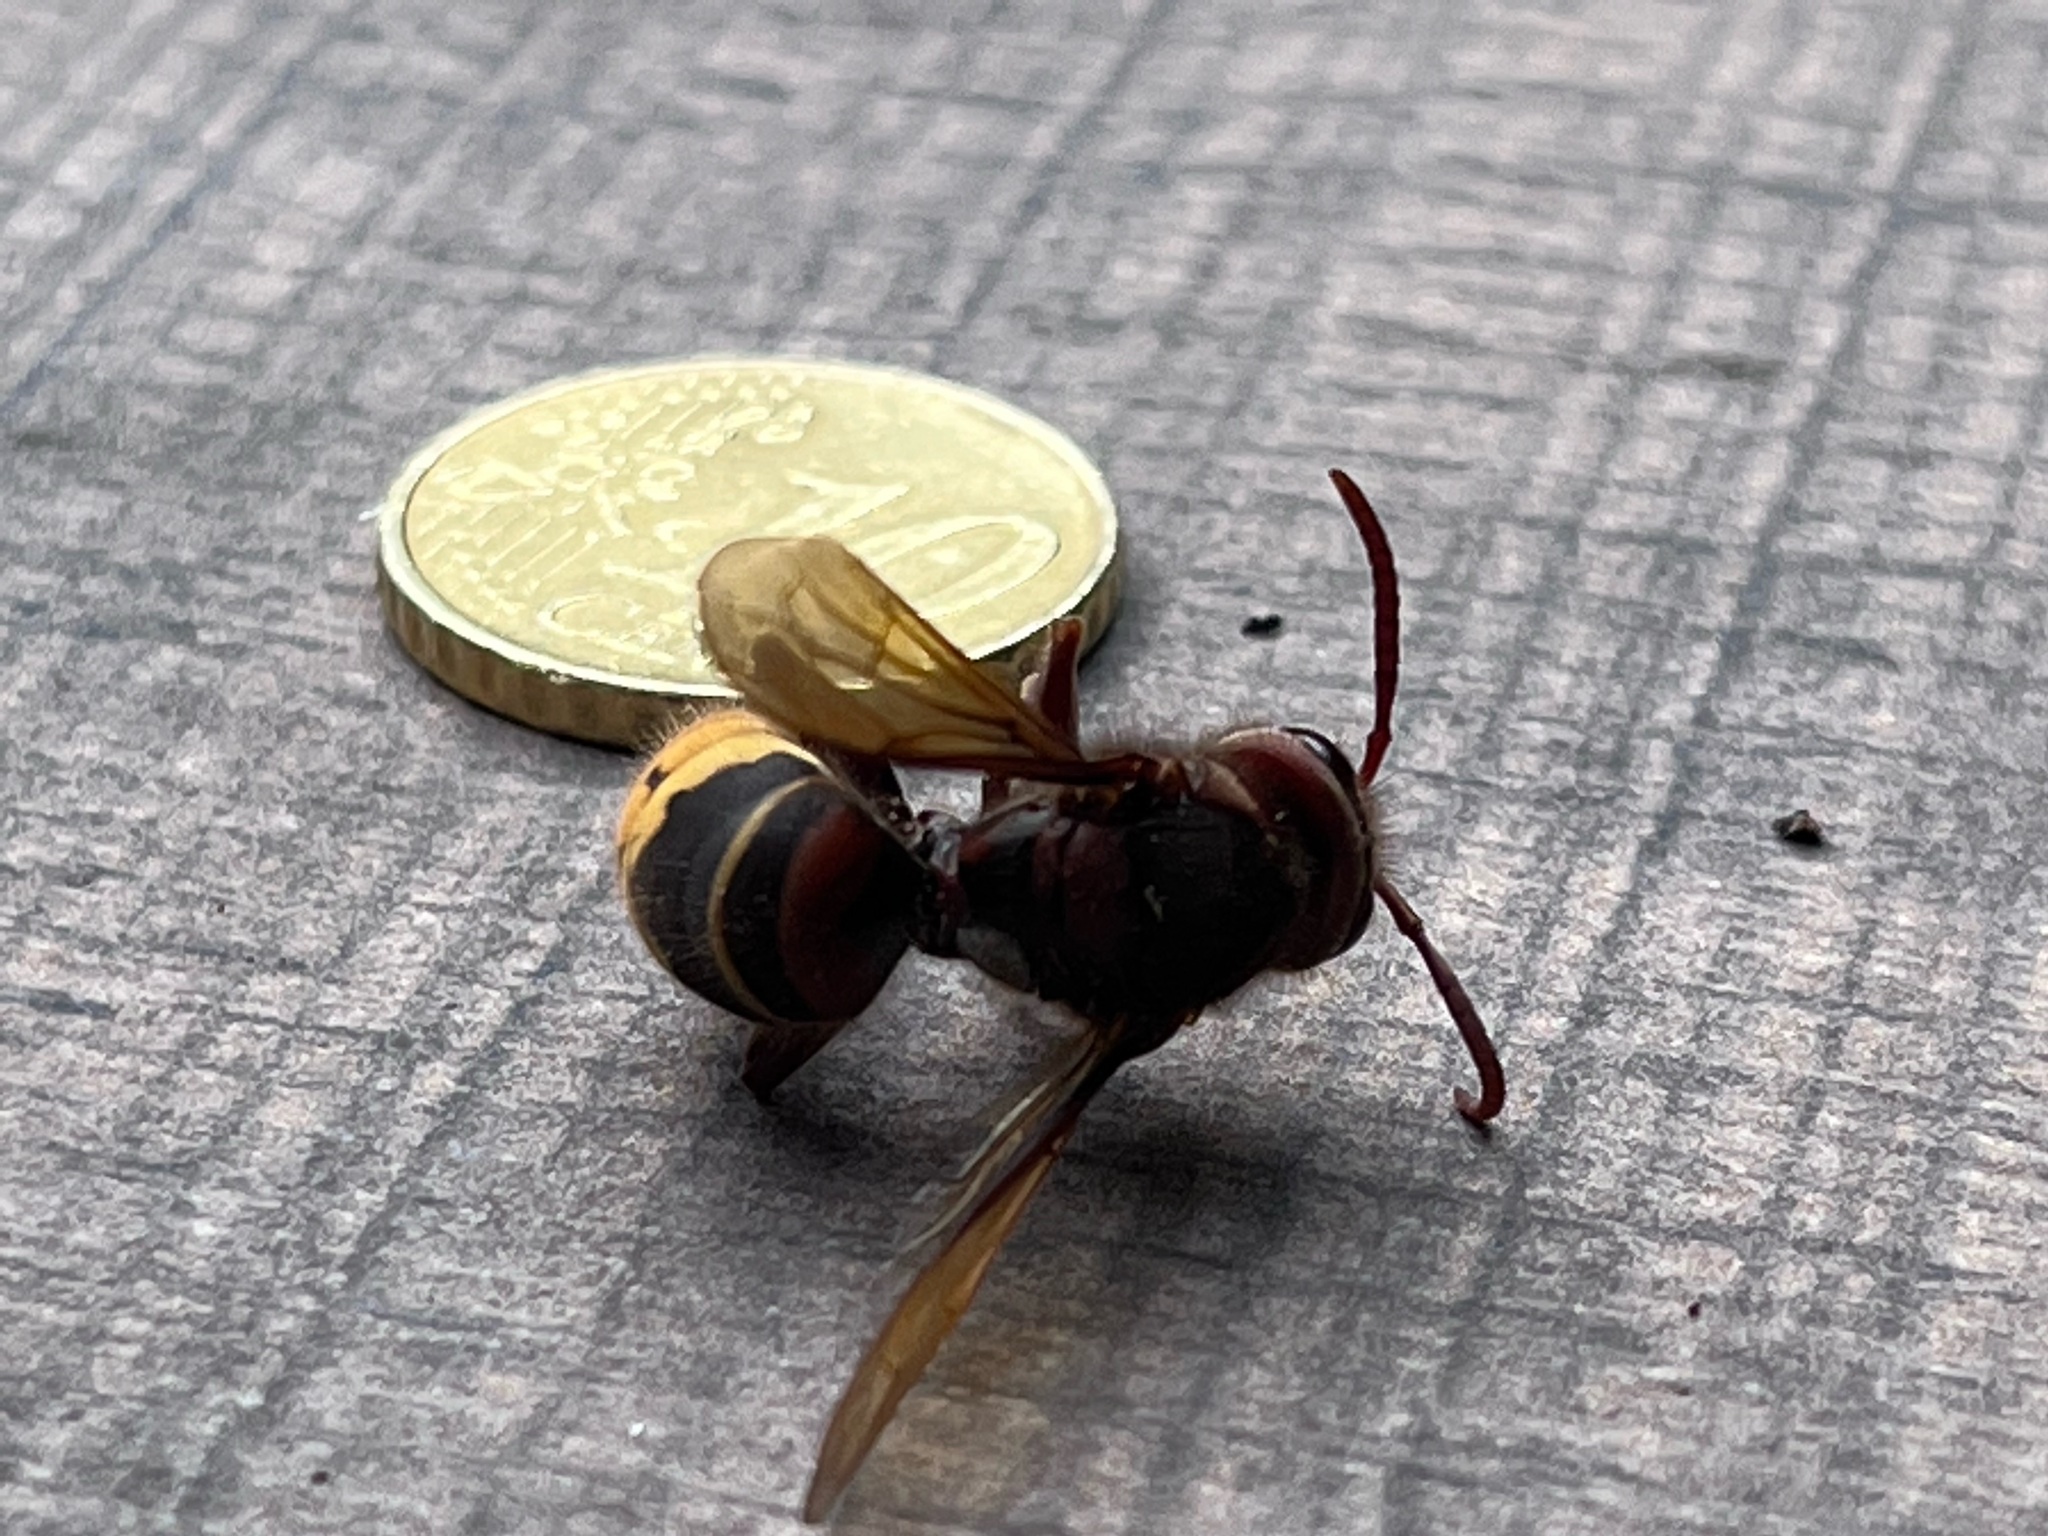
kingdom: Animalia
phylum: Arthropoda
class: Insecta
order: Hymenoptera
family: Vespidae
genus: Vespa
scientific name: Vespa crabro
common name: Hornet
